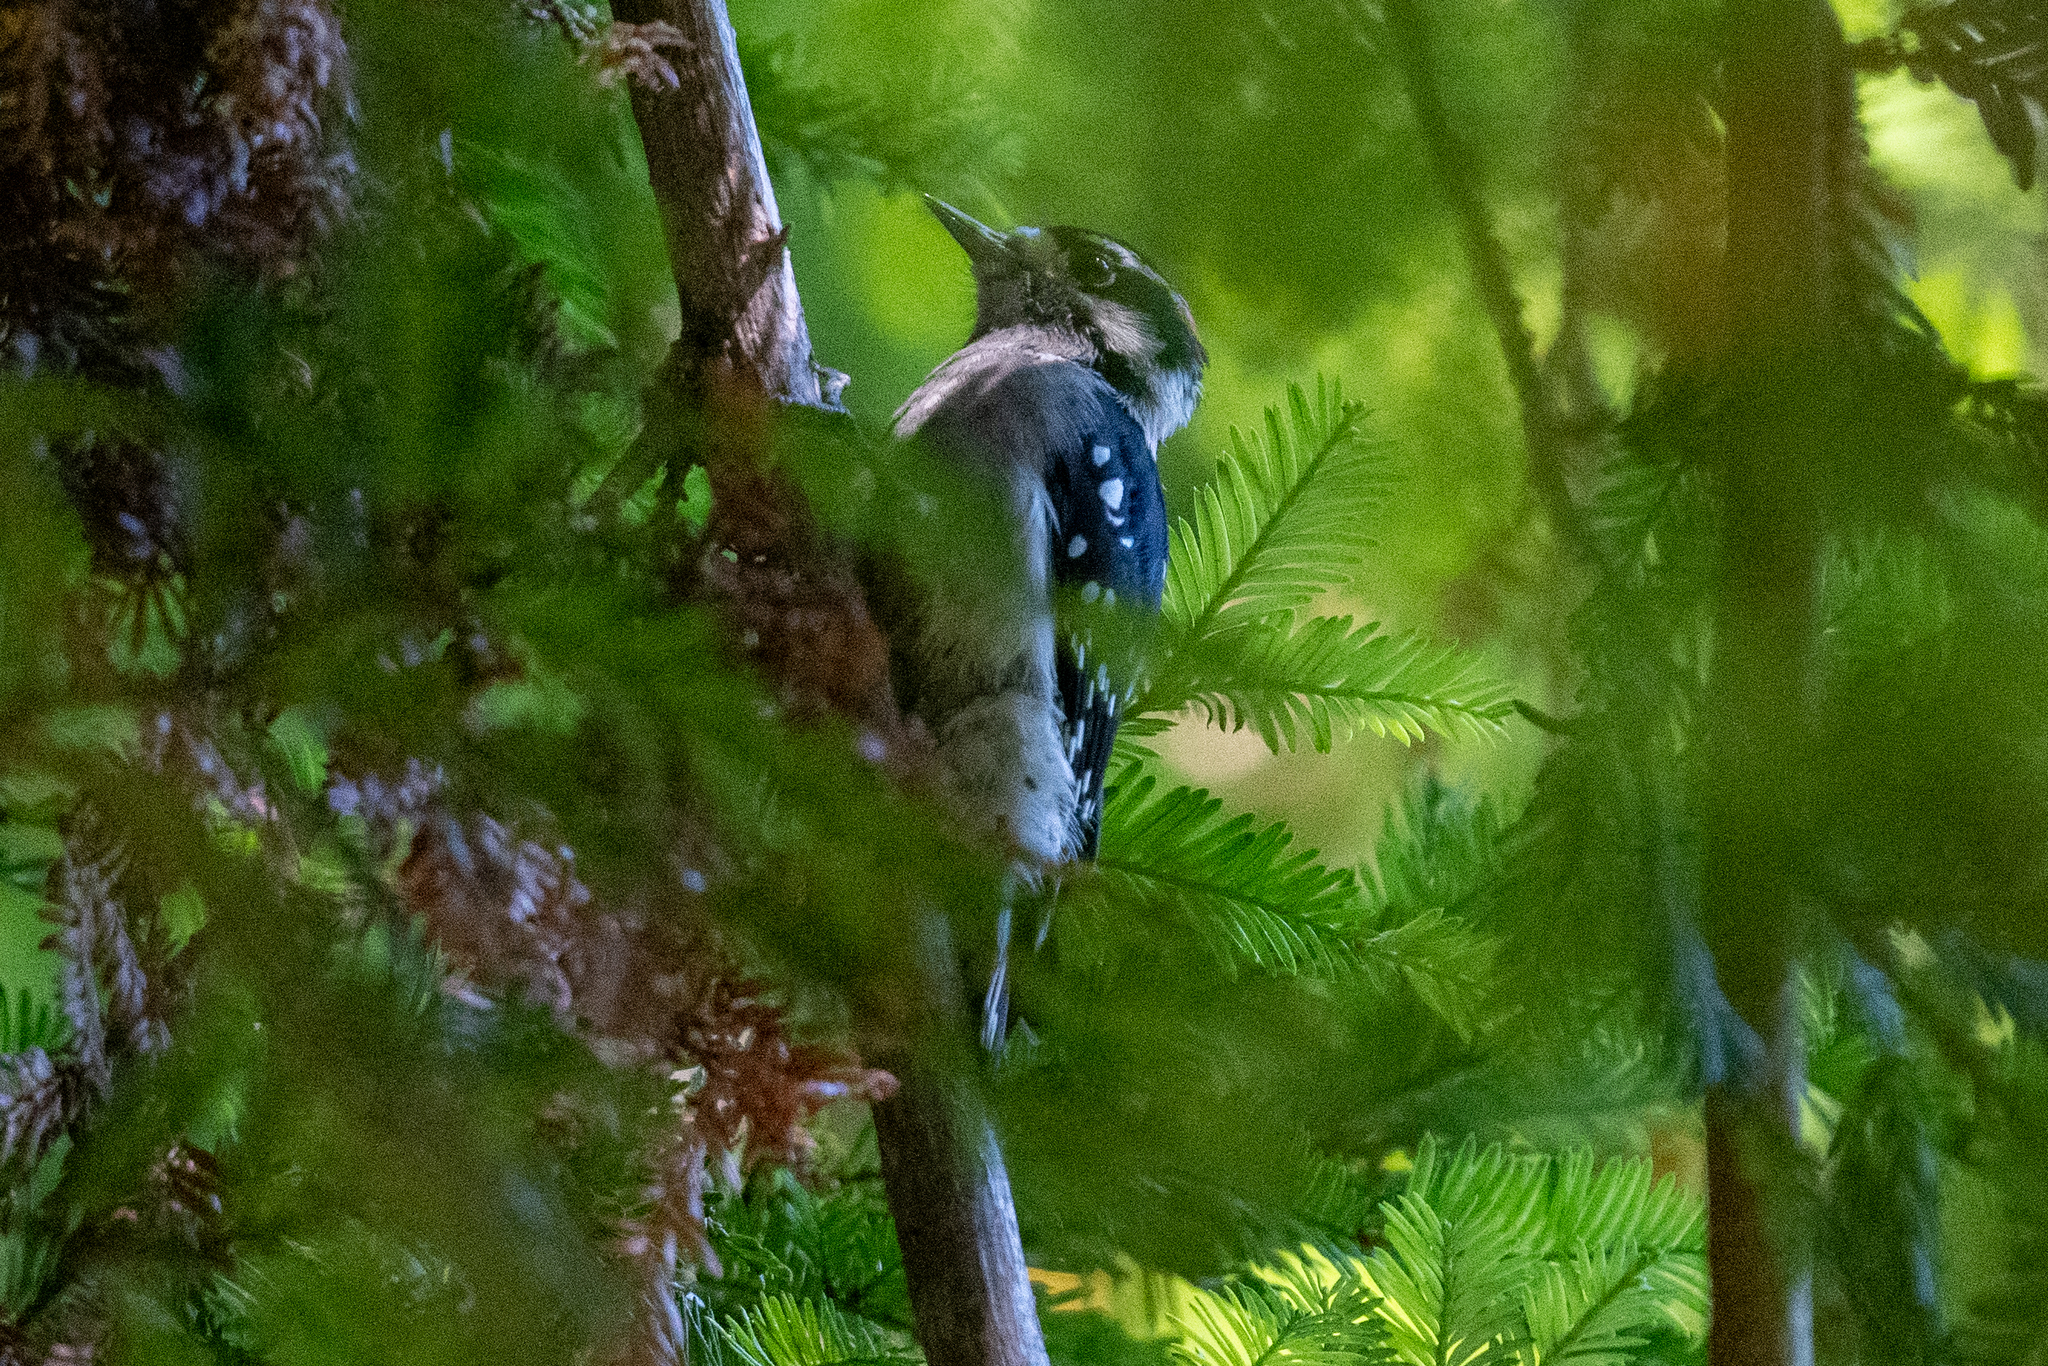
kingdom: Animalia
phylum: Chordata
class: Aves
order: Piciformes
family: Picidae
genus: Dryobates
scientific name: Dryobates pubescens
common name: Downy woodpecker
